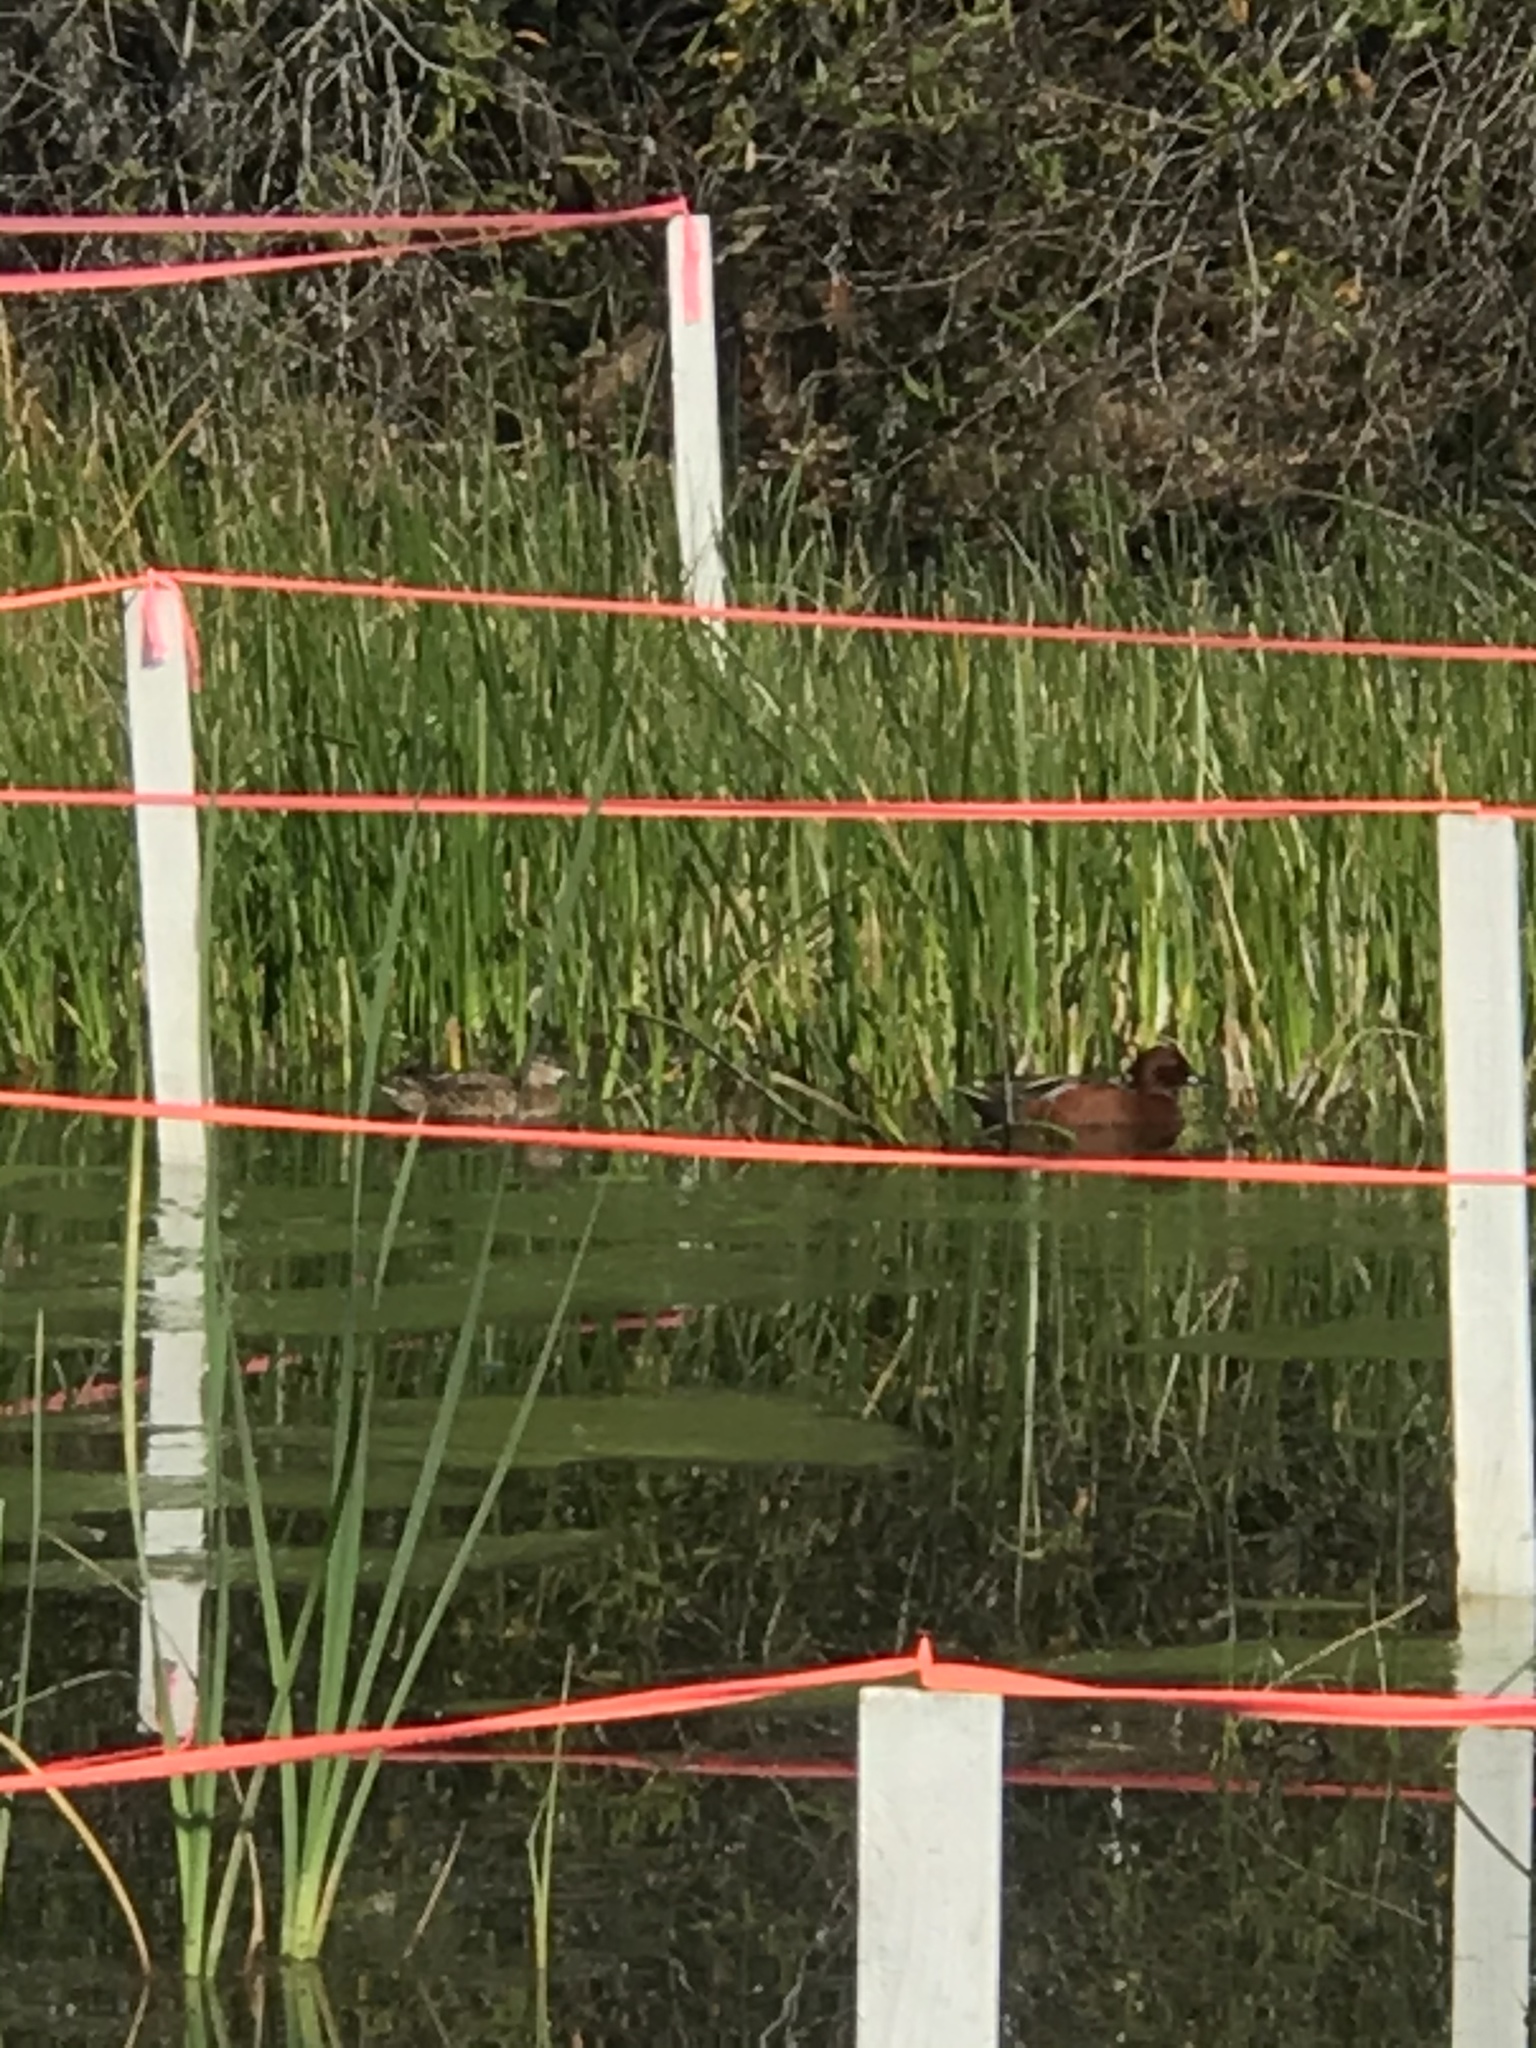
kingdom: Animalia
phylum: Chordata
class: Aves
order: Anseriformes
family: Anatidae
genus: Spatula
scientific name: Spatula cyanoptera
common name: Cinnamon teal
